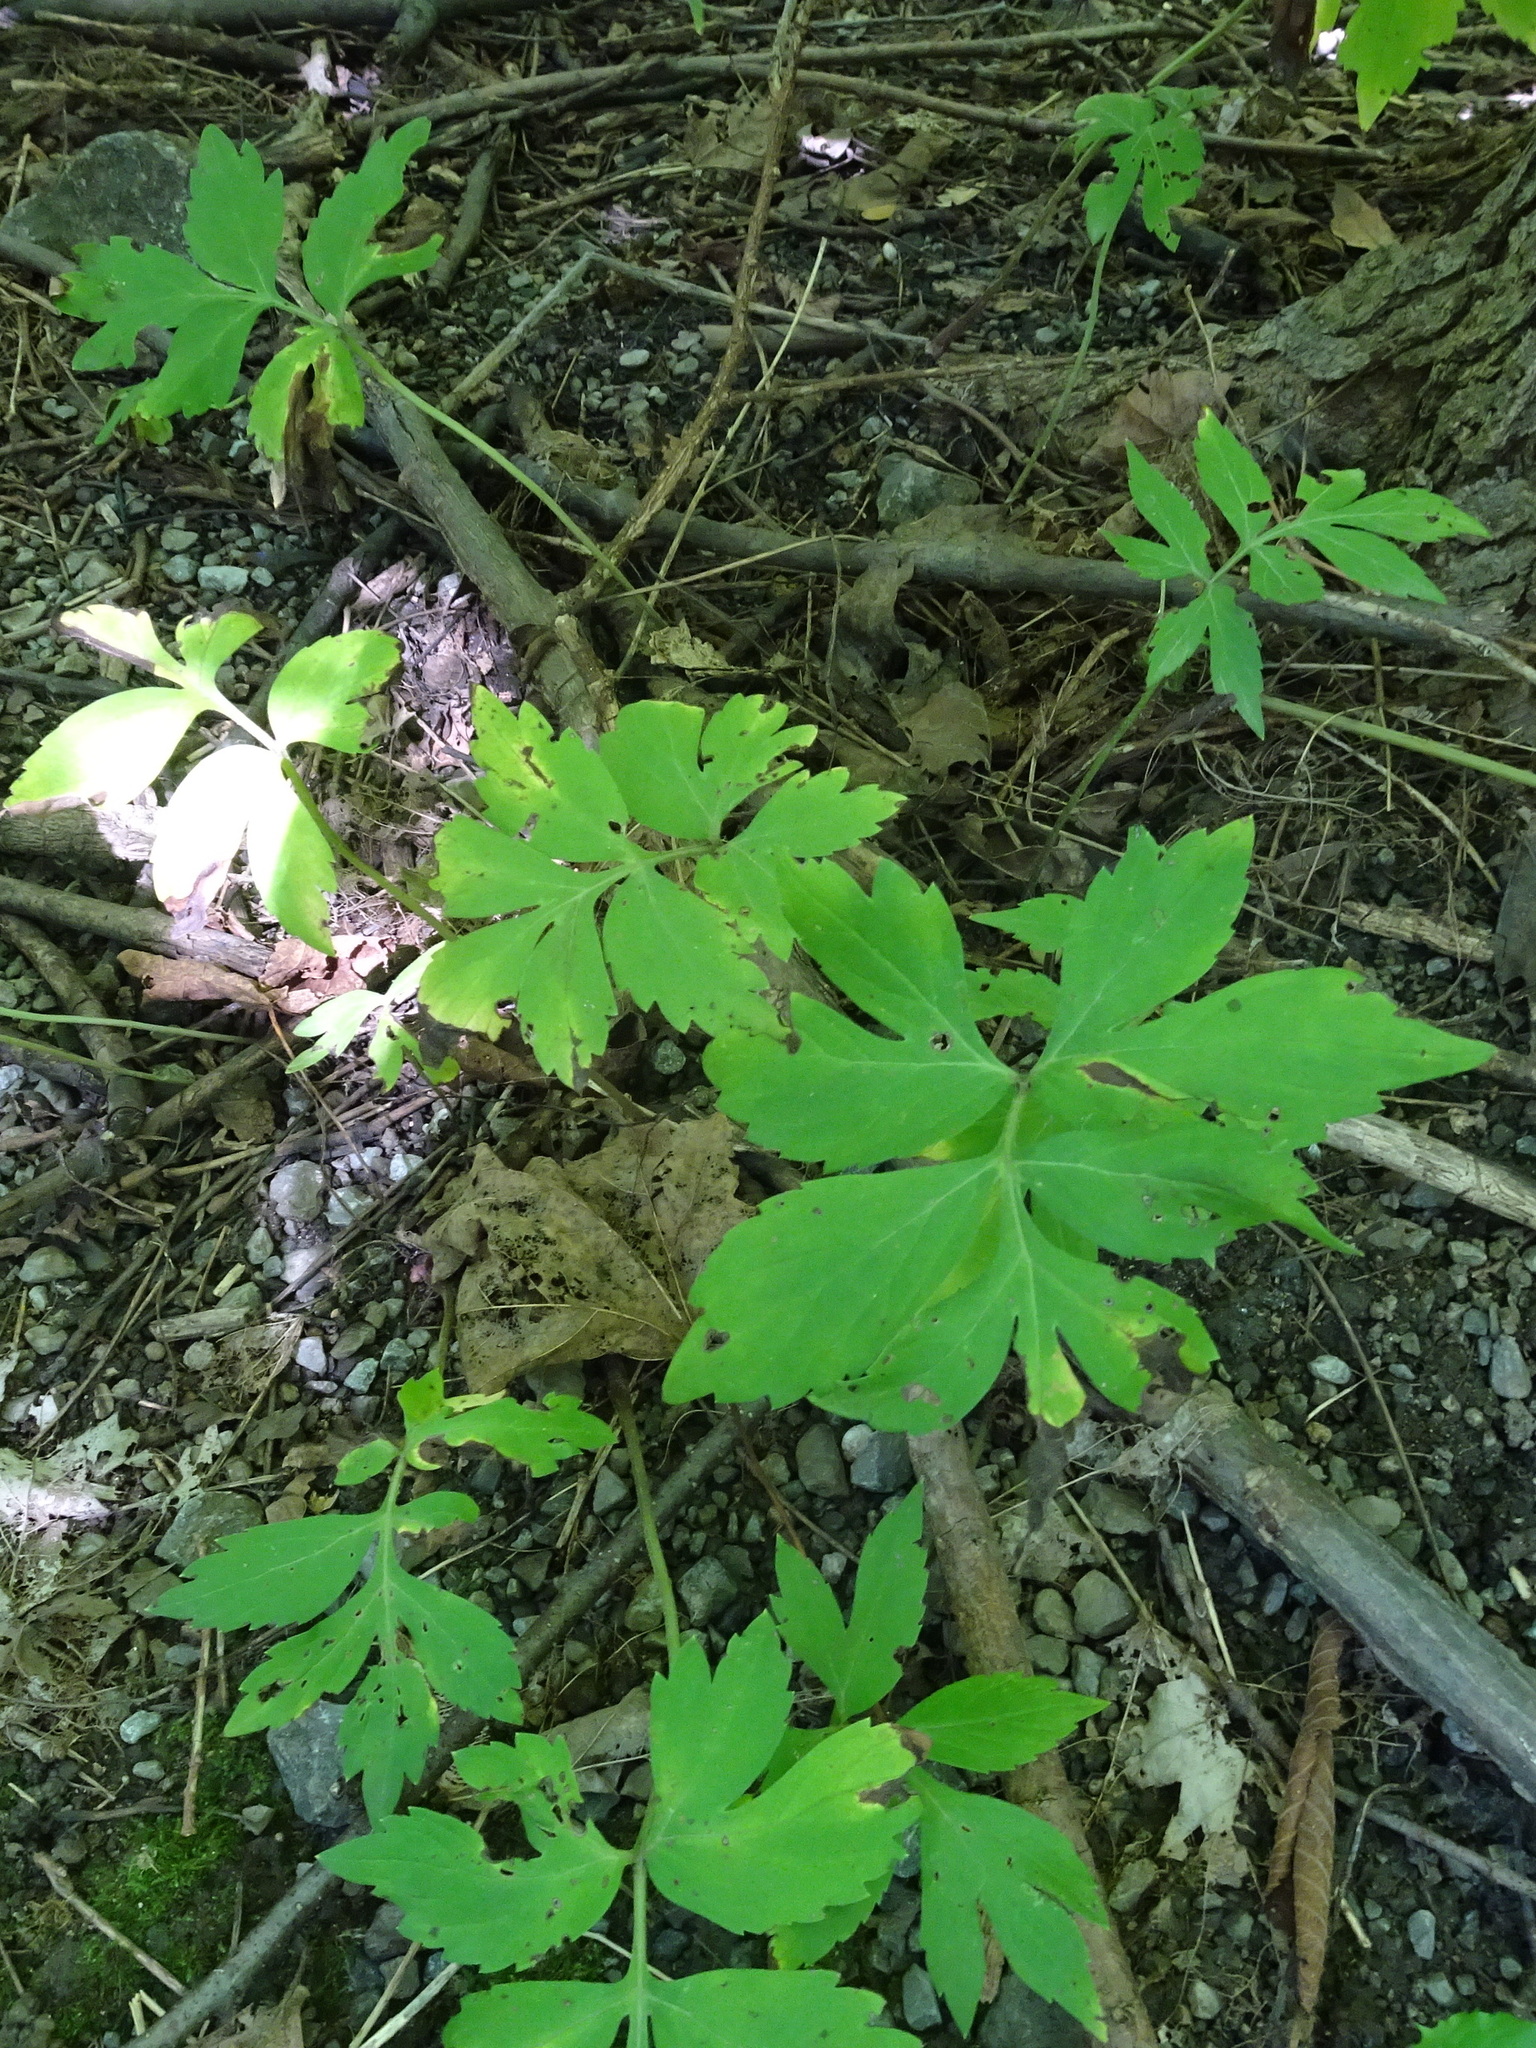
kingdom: Plantae
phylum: Tracheophyta
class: Magnoliopsida
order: Boraginales
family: Hydrophyllaceae
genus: Hydrophyllum
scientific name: Hydrophyllum virginianum
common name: Virginia waterleaf
